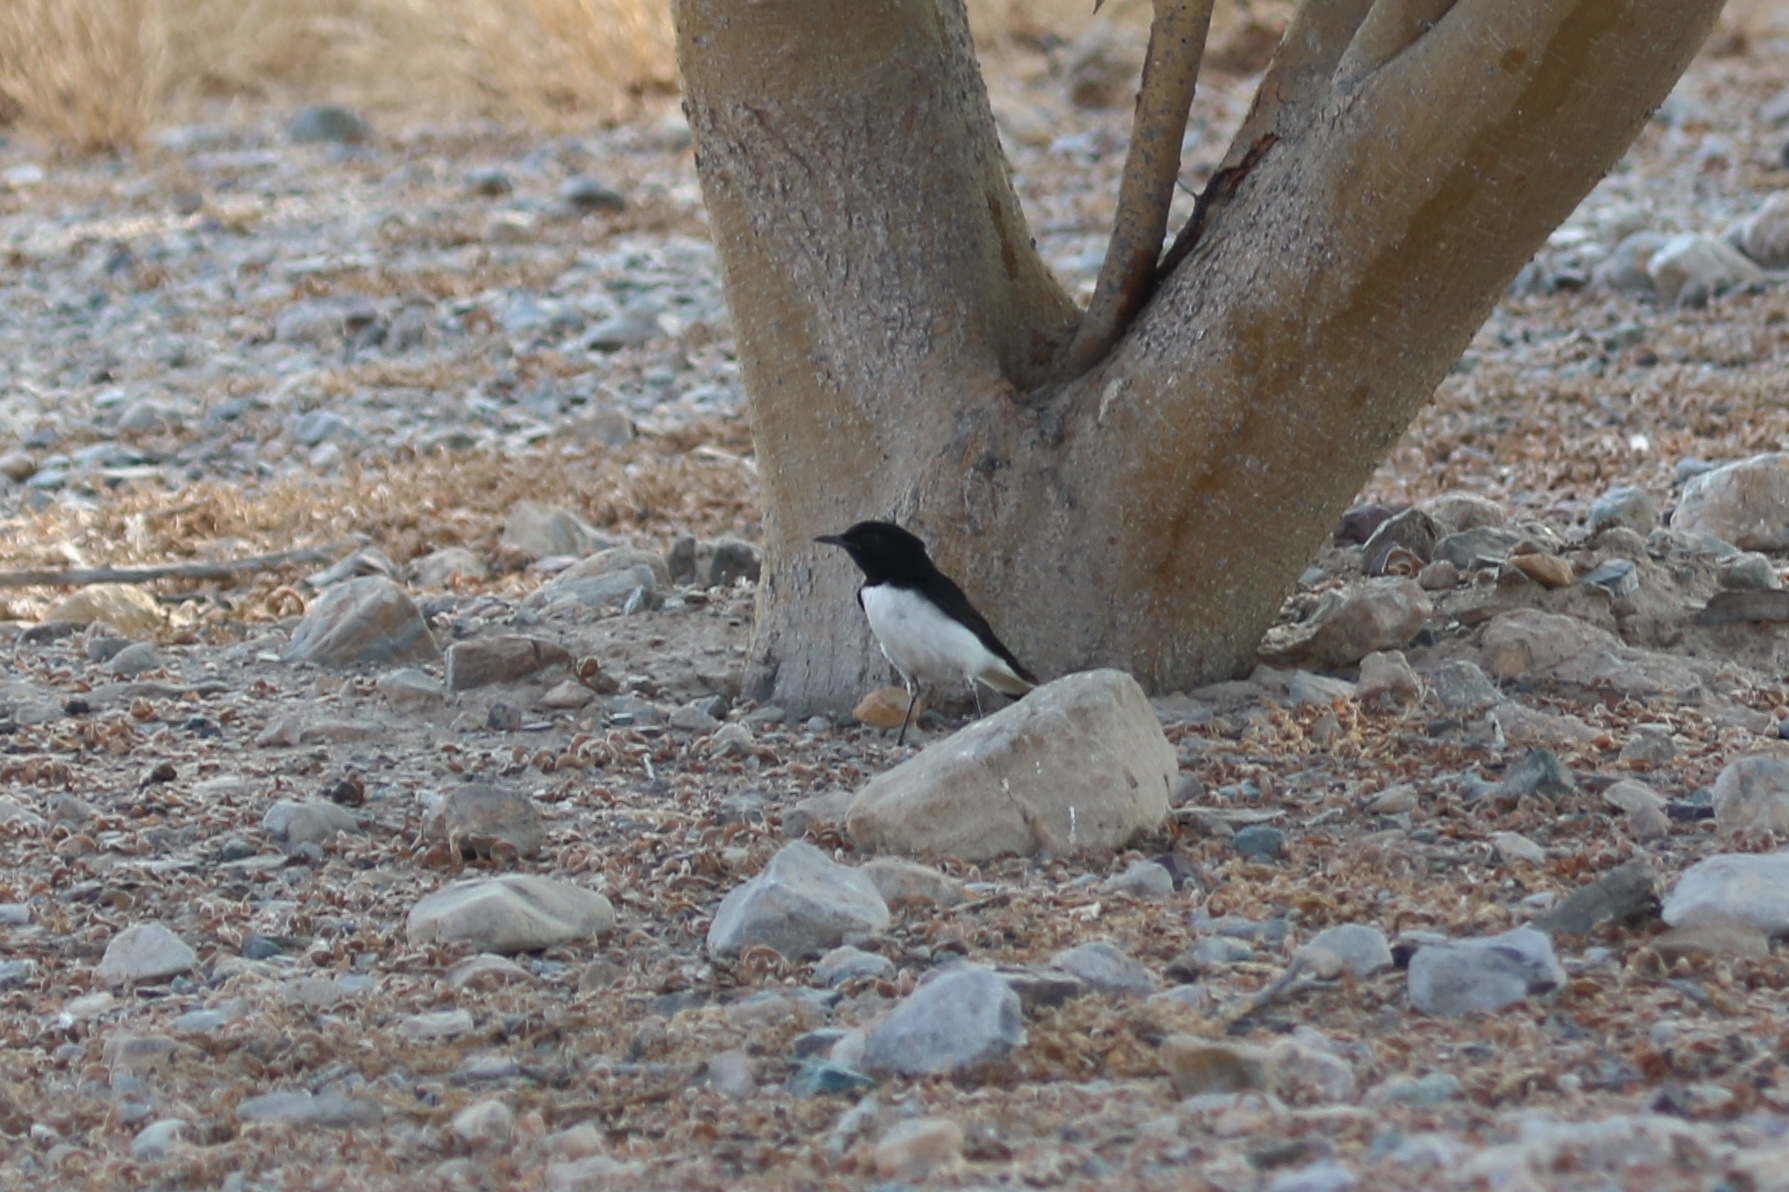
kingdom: Animalia
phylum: Chordata
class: Aves
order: Passeriformes
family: Muscicapidae
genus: Oenanthe
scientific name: Oenanthe albonigra
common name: Hume's wheatear
